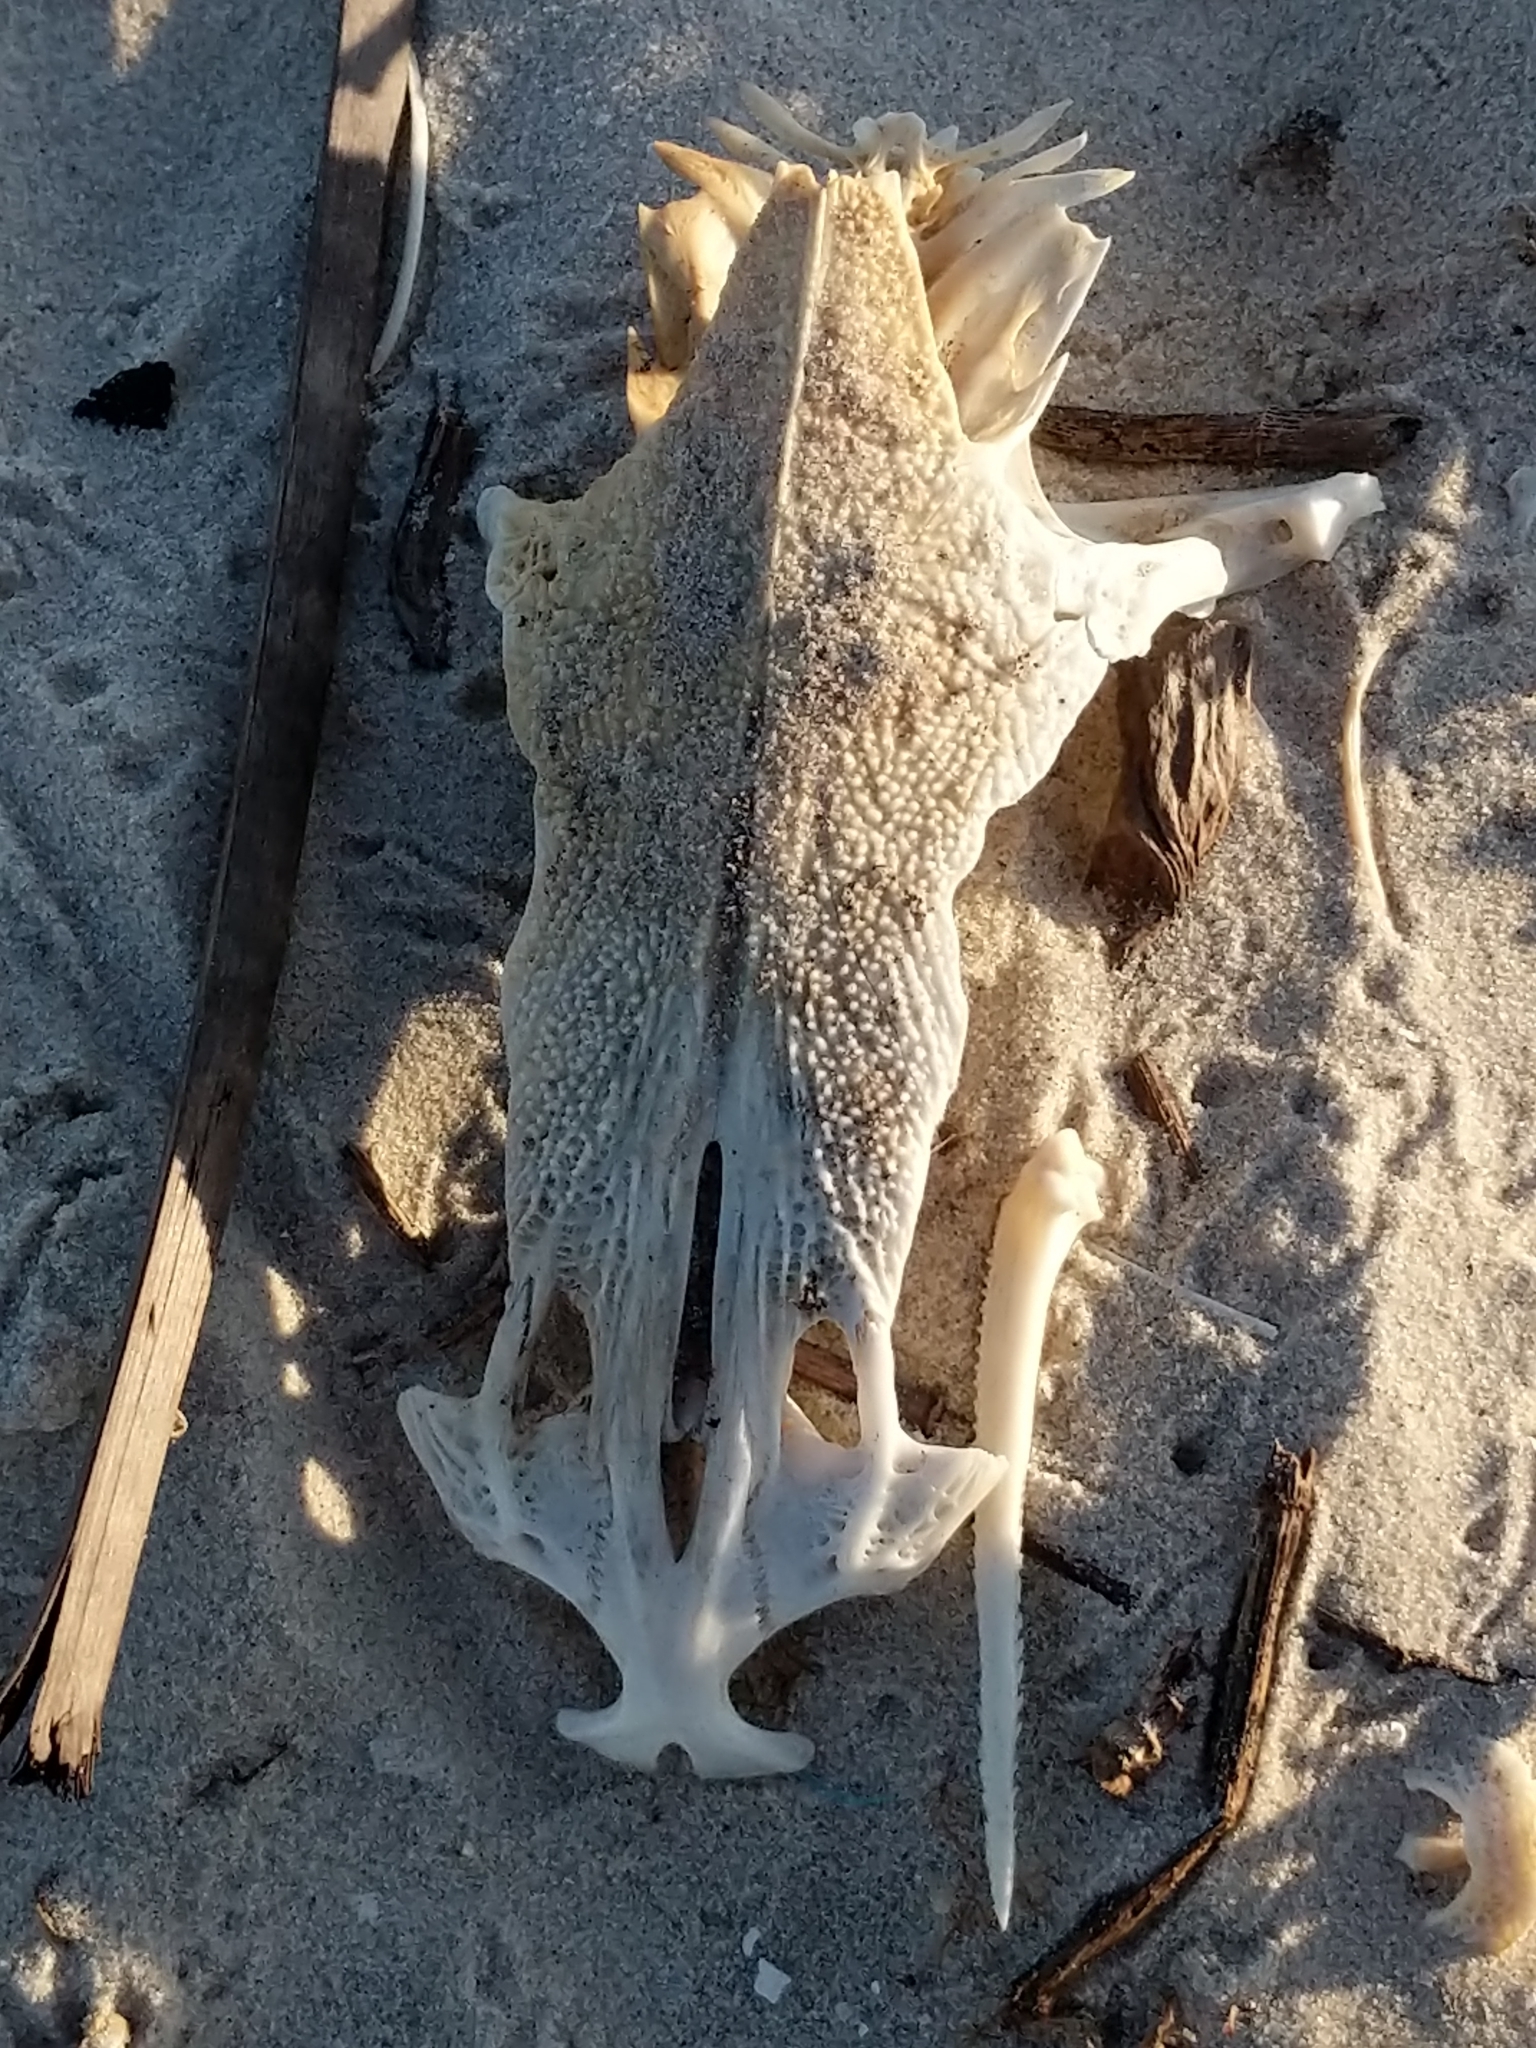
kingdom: Animalia
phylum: Chordata
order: Siluriformes
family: Ariidae
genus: Ariopsis
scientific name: Ariopsis felis
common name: Hardhead catfish
